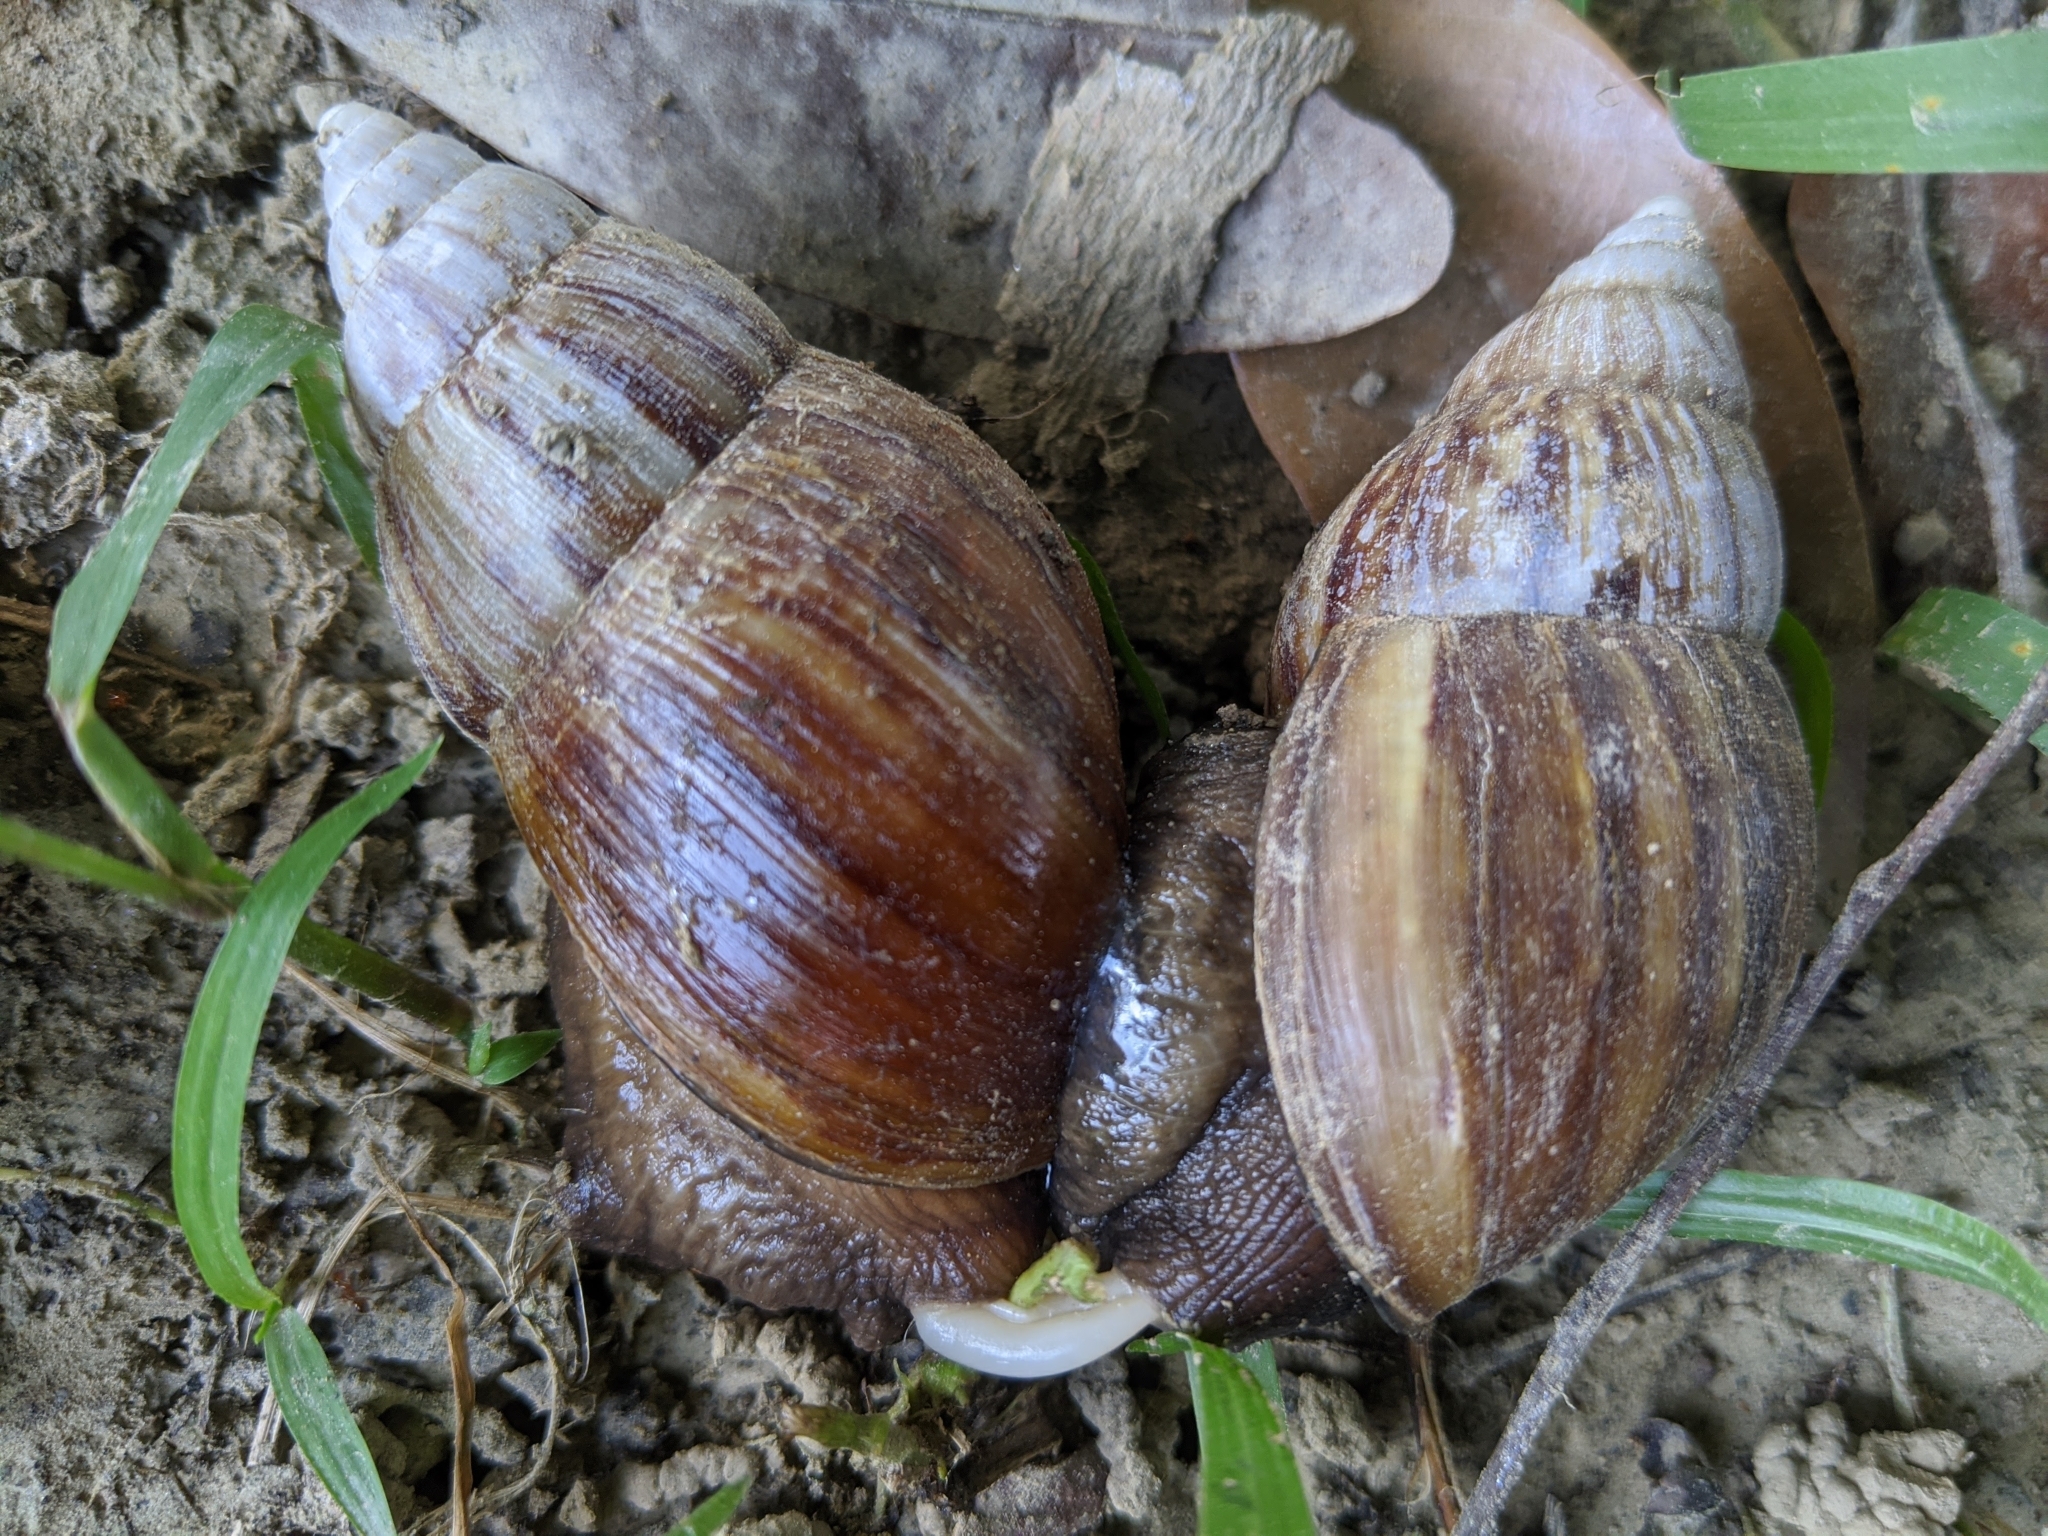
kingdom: Animalia
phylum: Mollusca
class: Gastropoda
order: Stylommatophora
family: Achatinidae
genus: Lissachatina
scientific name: Lissachatina fulica
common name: Giant african snail
